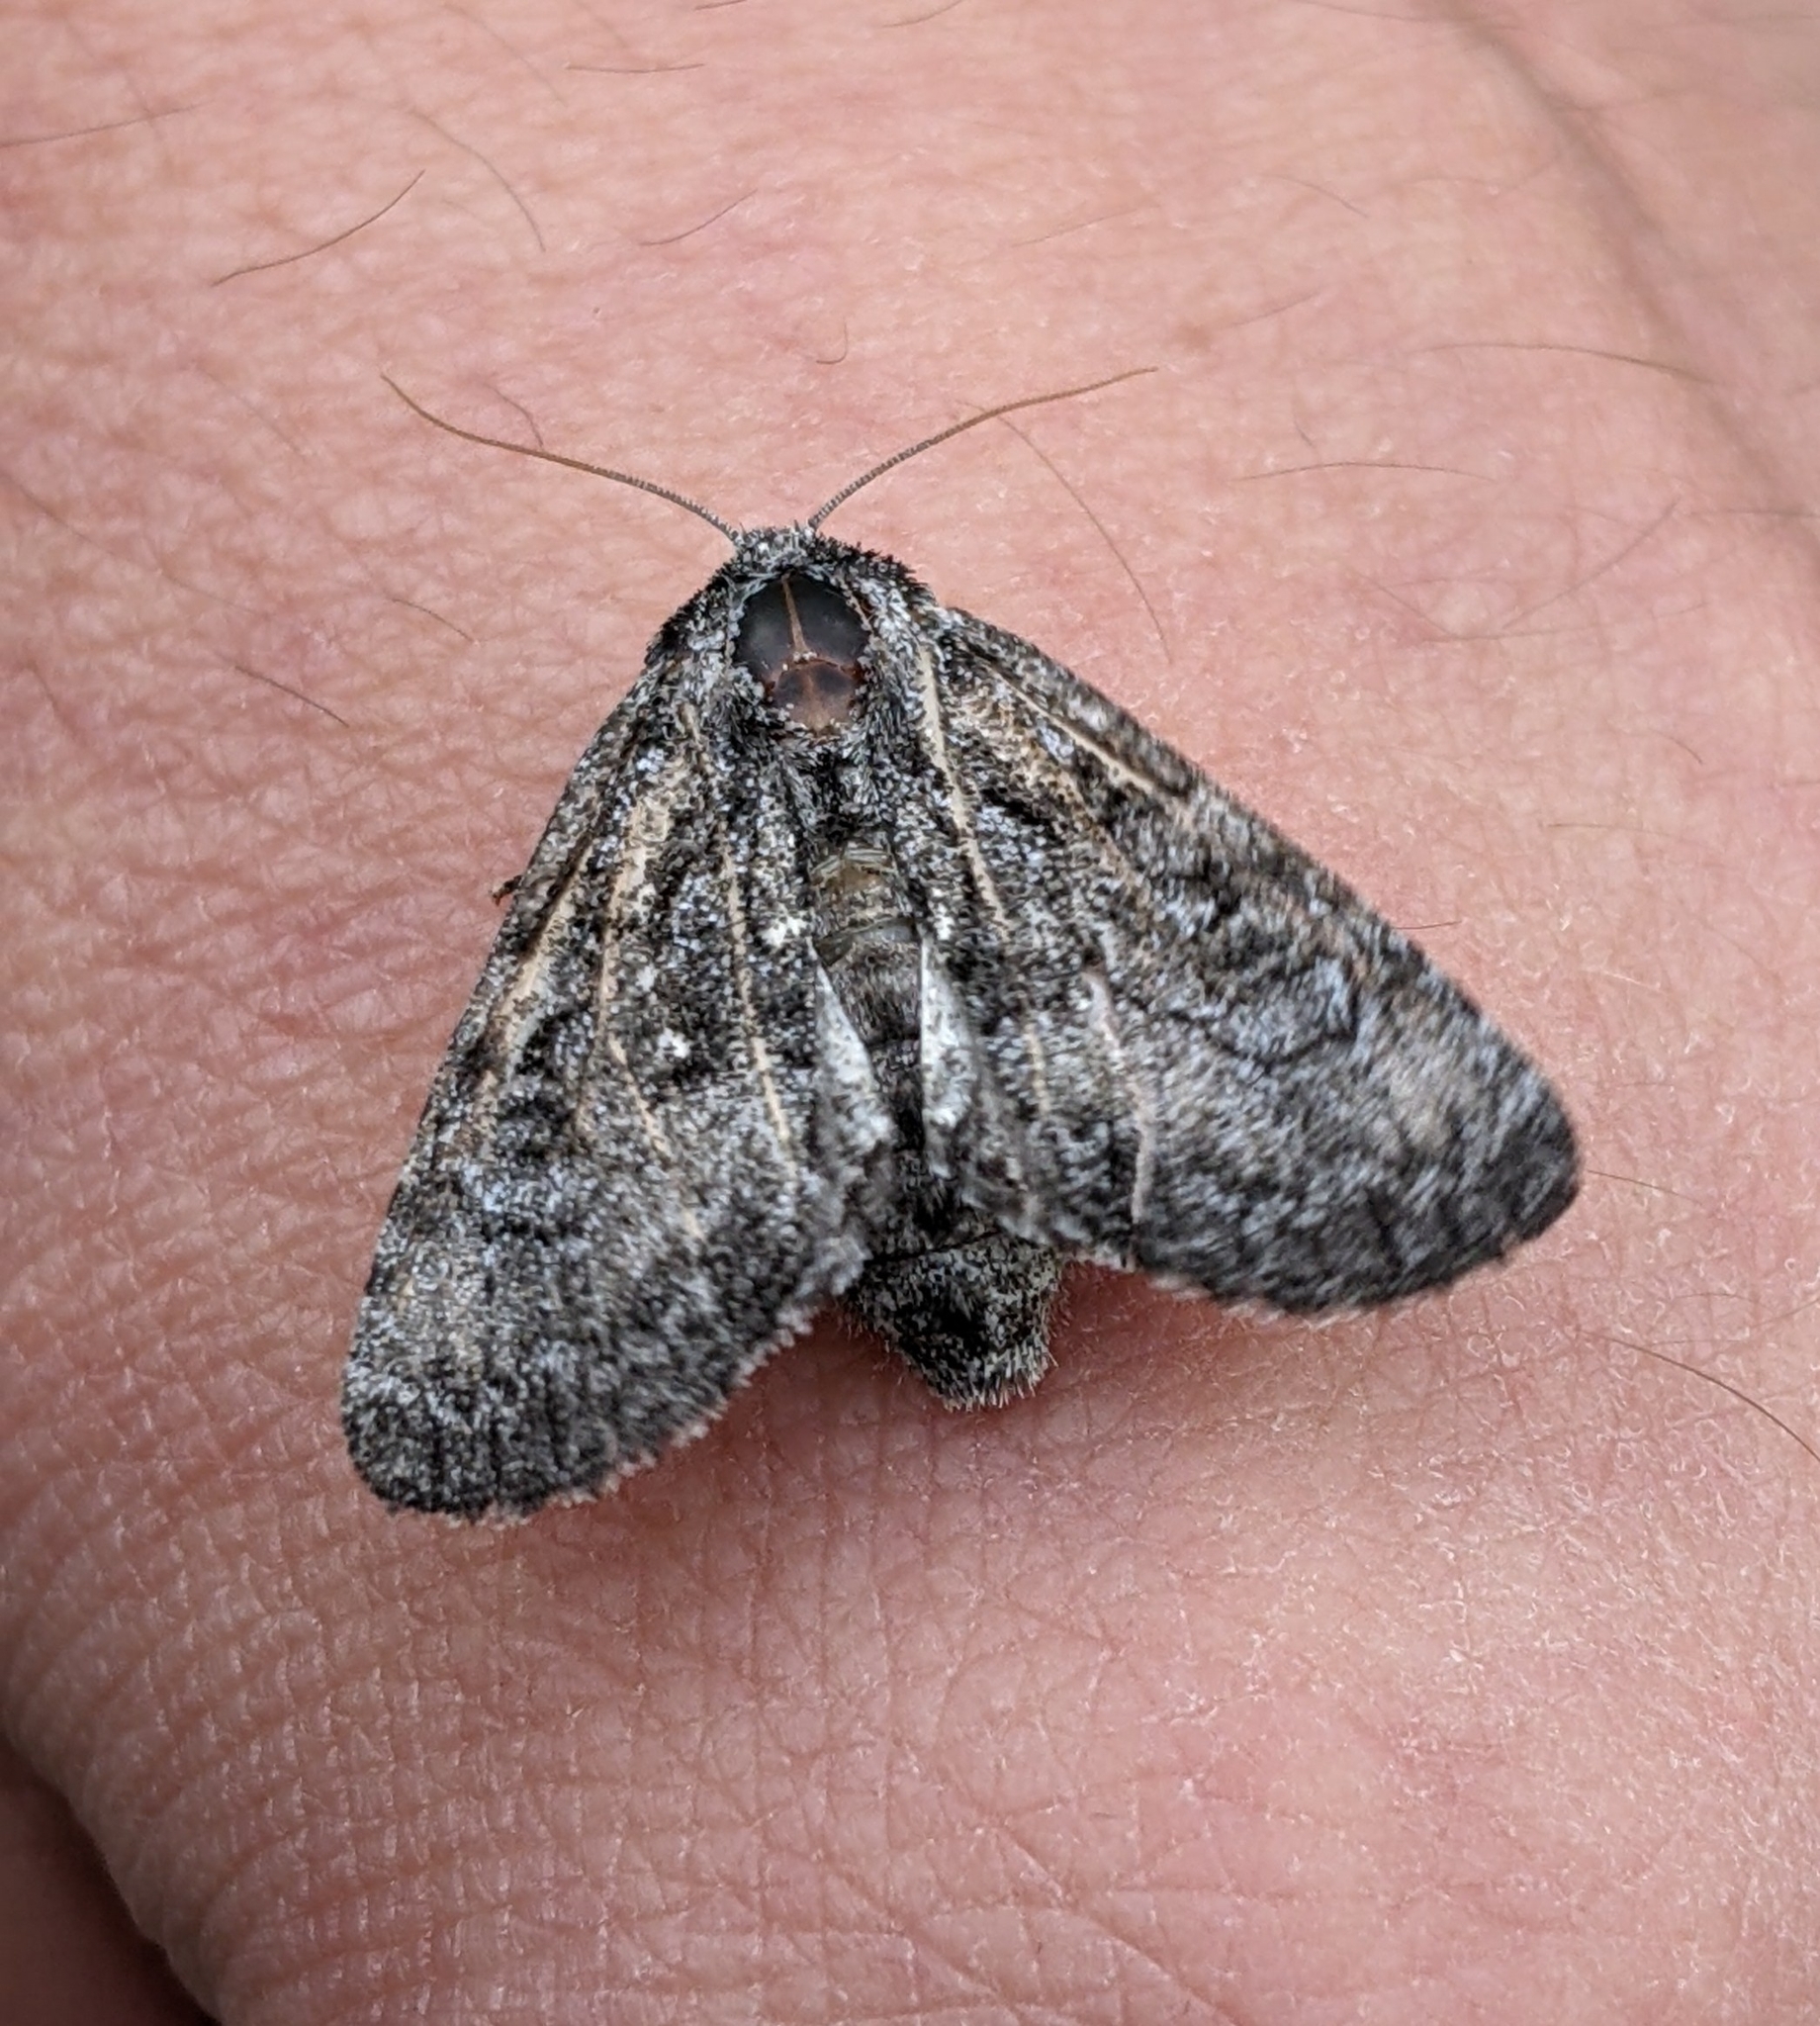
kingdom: Animalia
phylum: Arthropoda
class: Insecta
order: Lepidoptera
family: Noctuidae
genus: Raphia
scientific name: Raphia frater
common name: Brother
